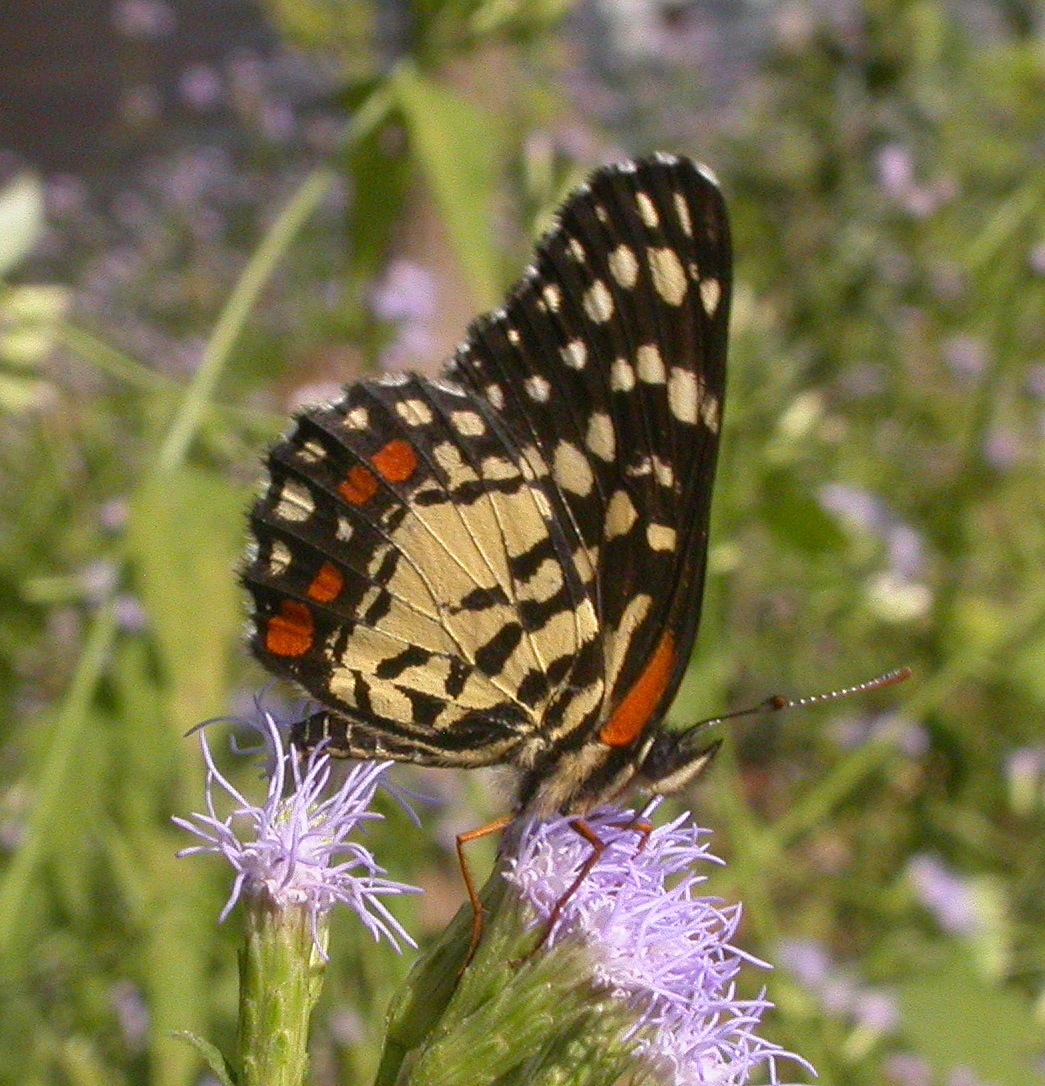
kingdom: Animalia
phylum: Arthropoda
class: Insecta
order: Lepidoptera
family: Nymphalidae
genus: Chlosyne
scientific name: Chlosyne marina
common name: Red-spotted patch
